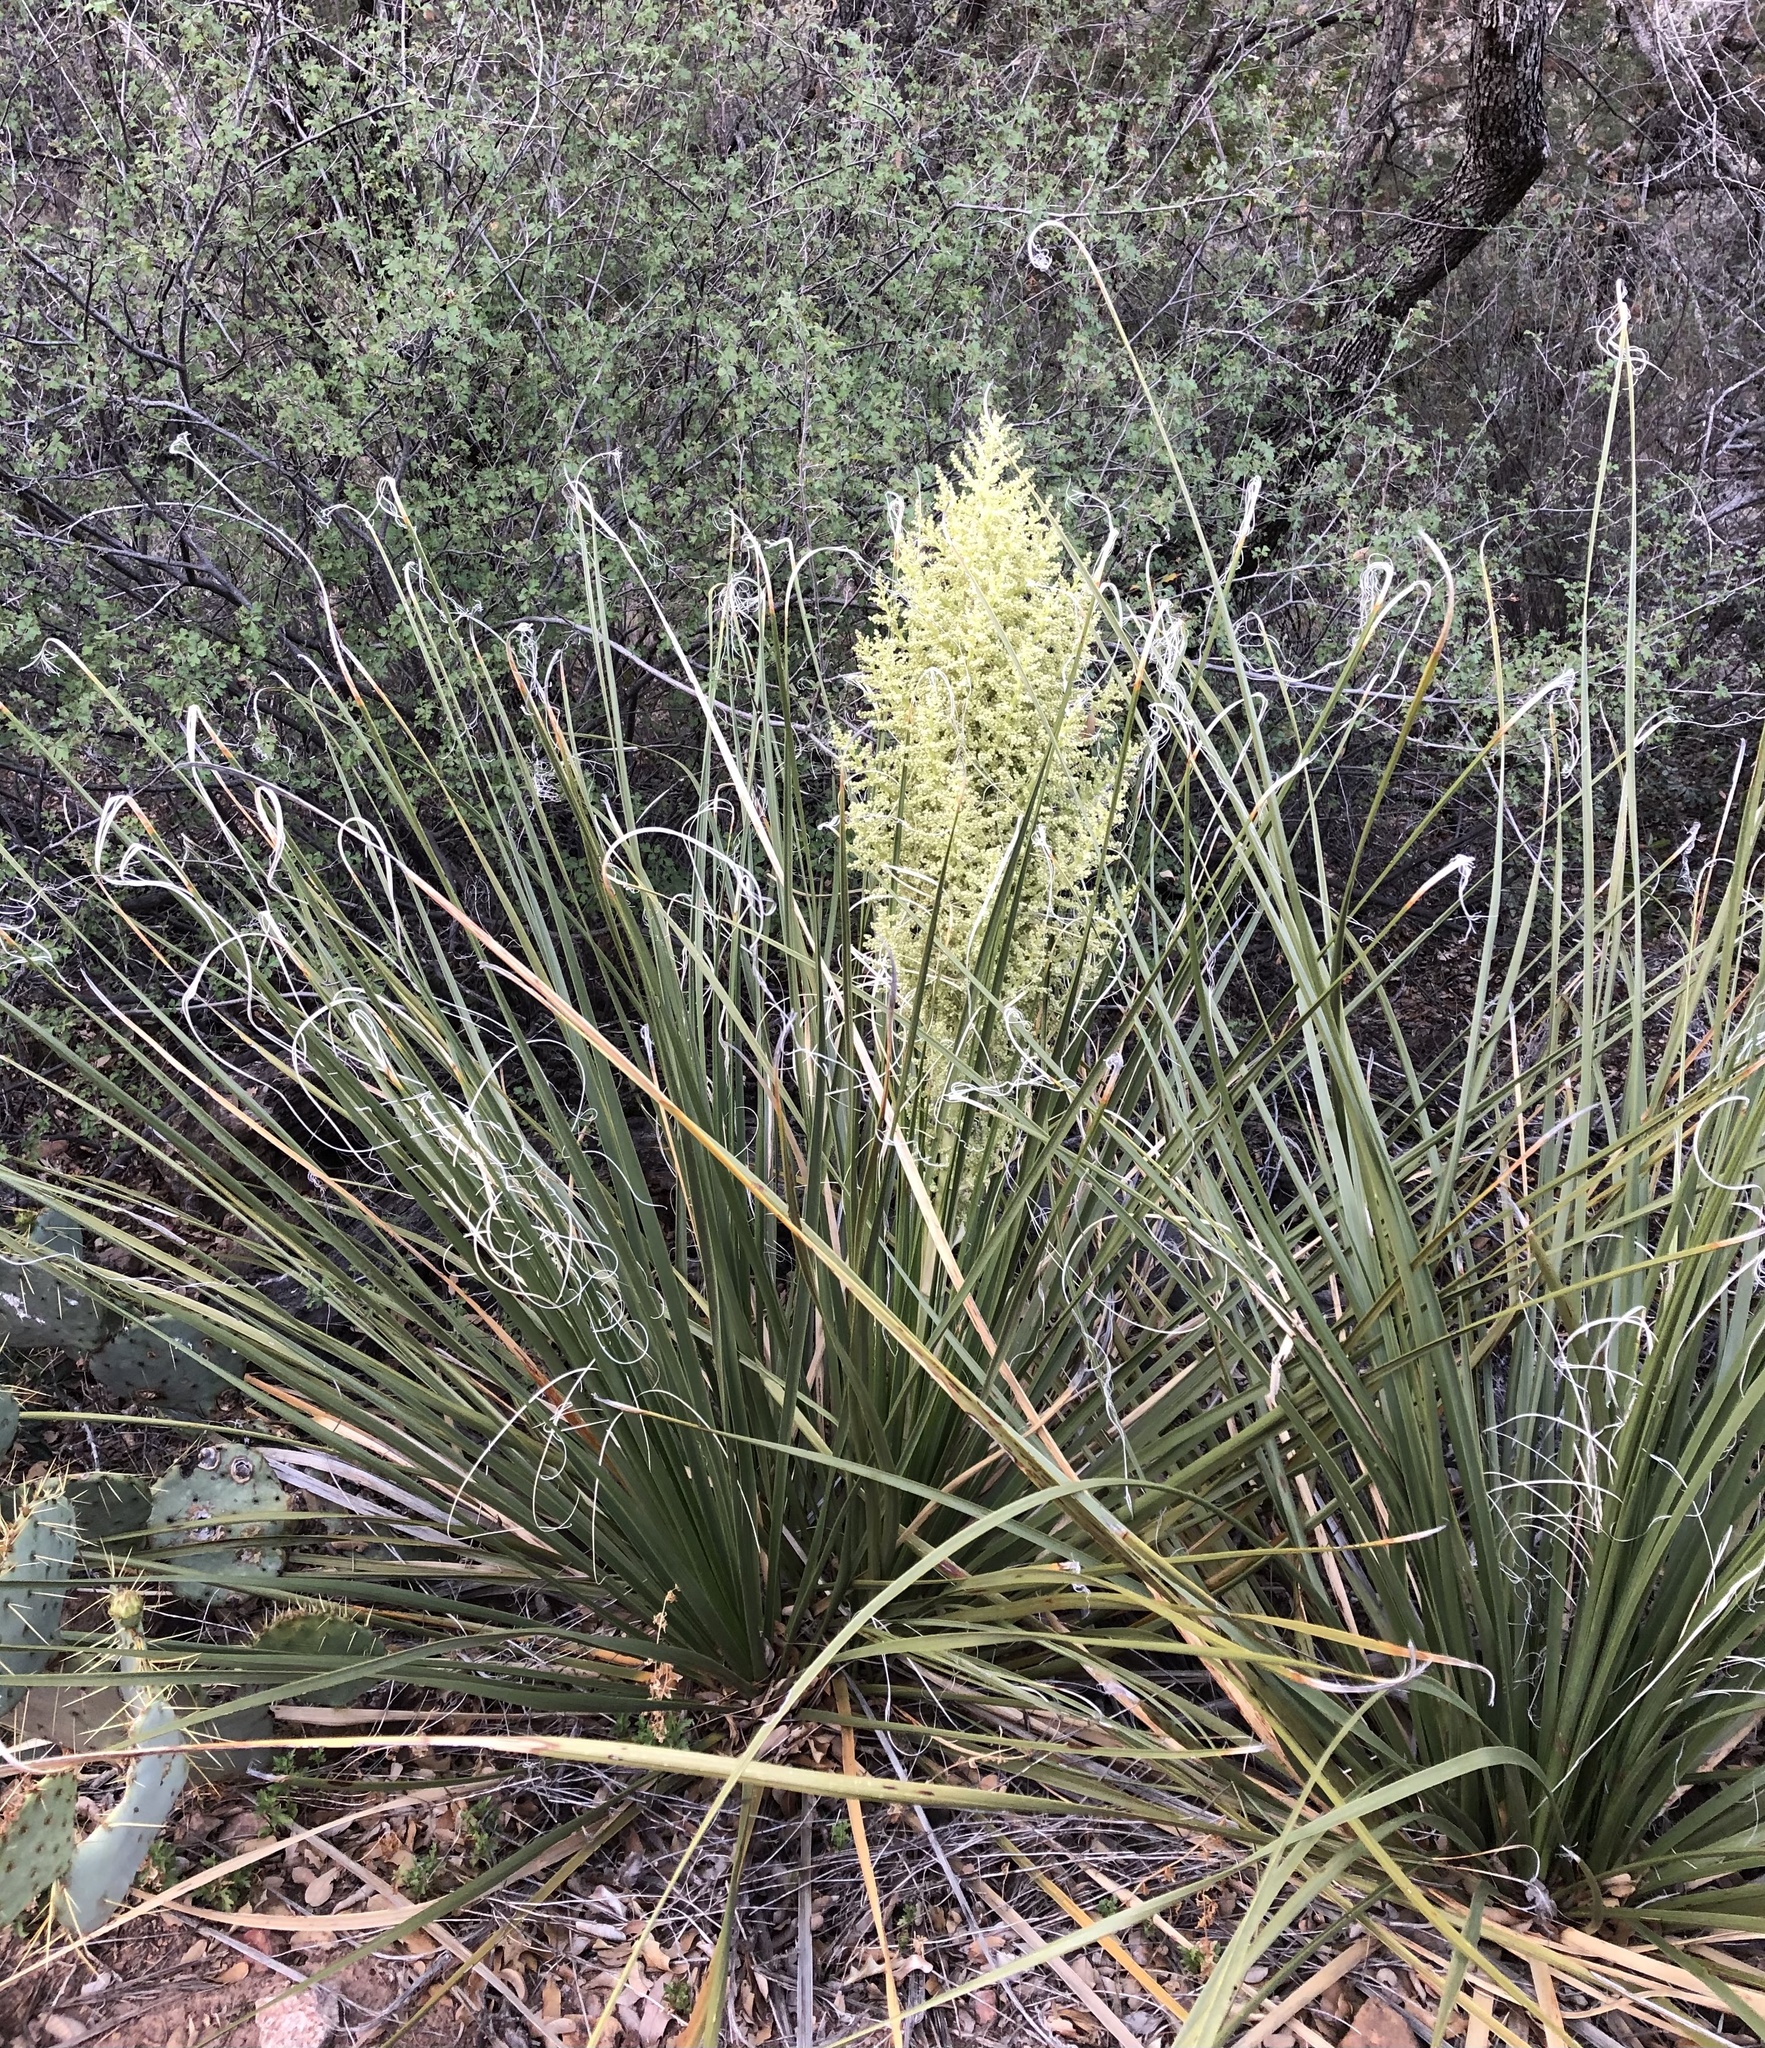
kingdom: Plantae
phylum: Tracheophyta
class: Liliopsida
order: Asparagales
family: Asparagaceae
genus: Nolina
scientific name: Nolina erumpens
